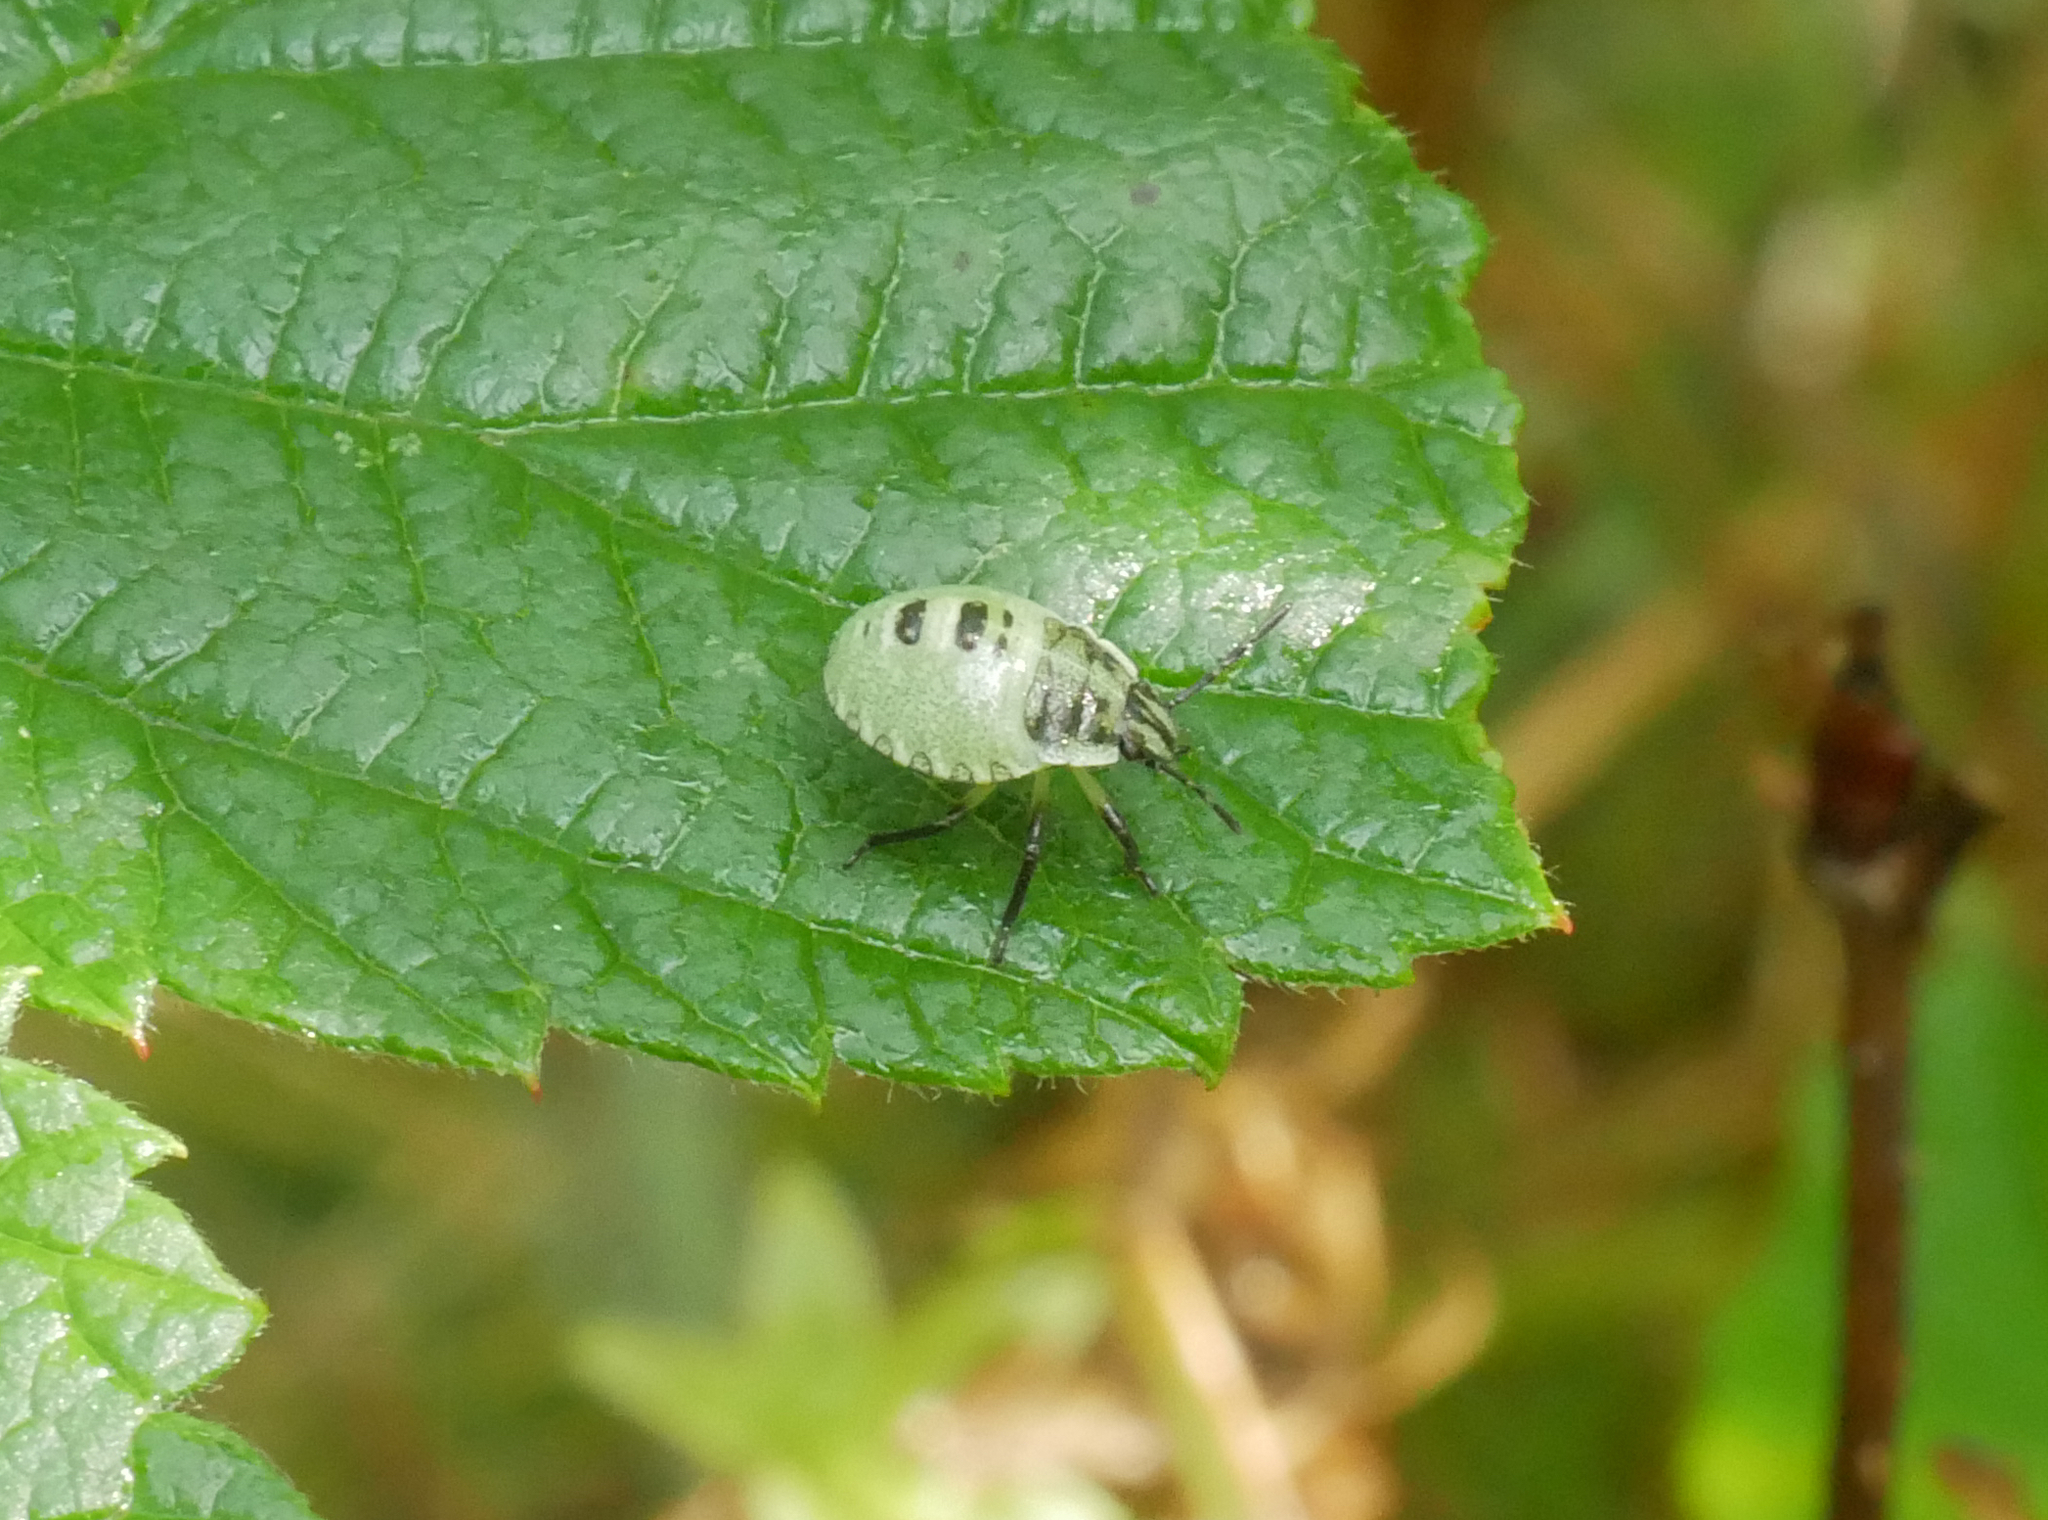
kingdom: Animalia
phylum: Arthropoda
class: Insecta
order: Hemiptera
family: Pentatomidae
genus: Palomena
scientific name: Palomena prasina
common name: Green shieldbug
